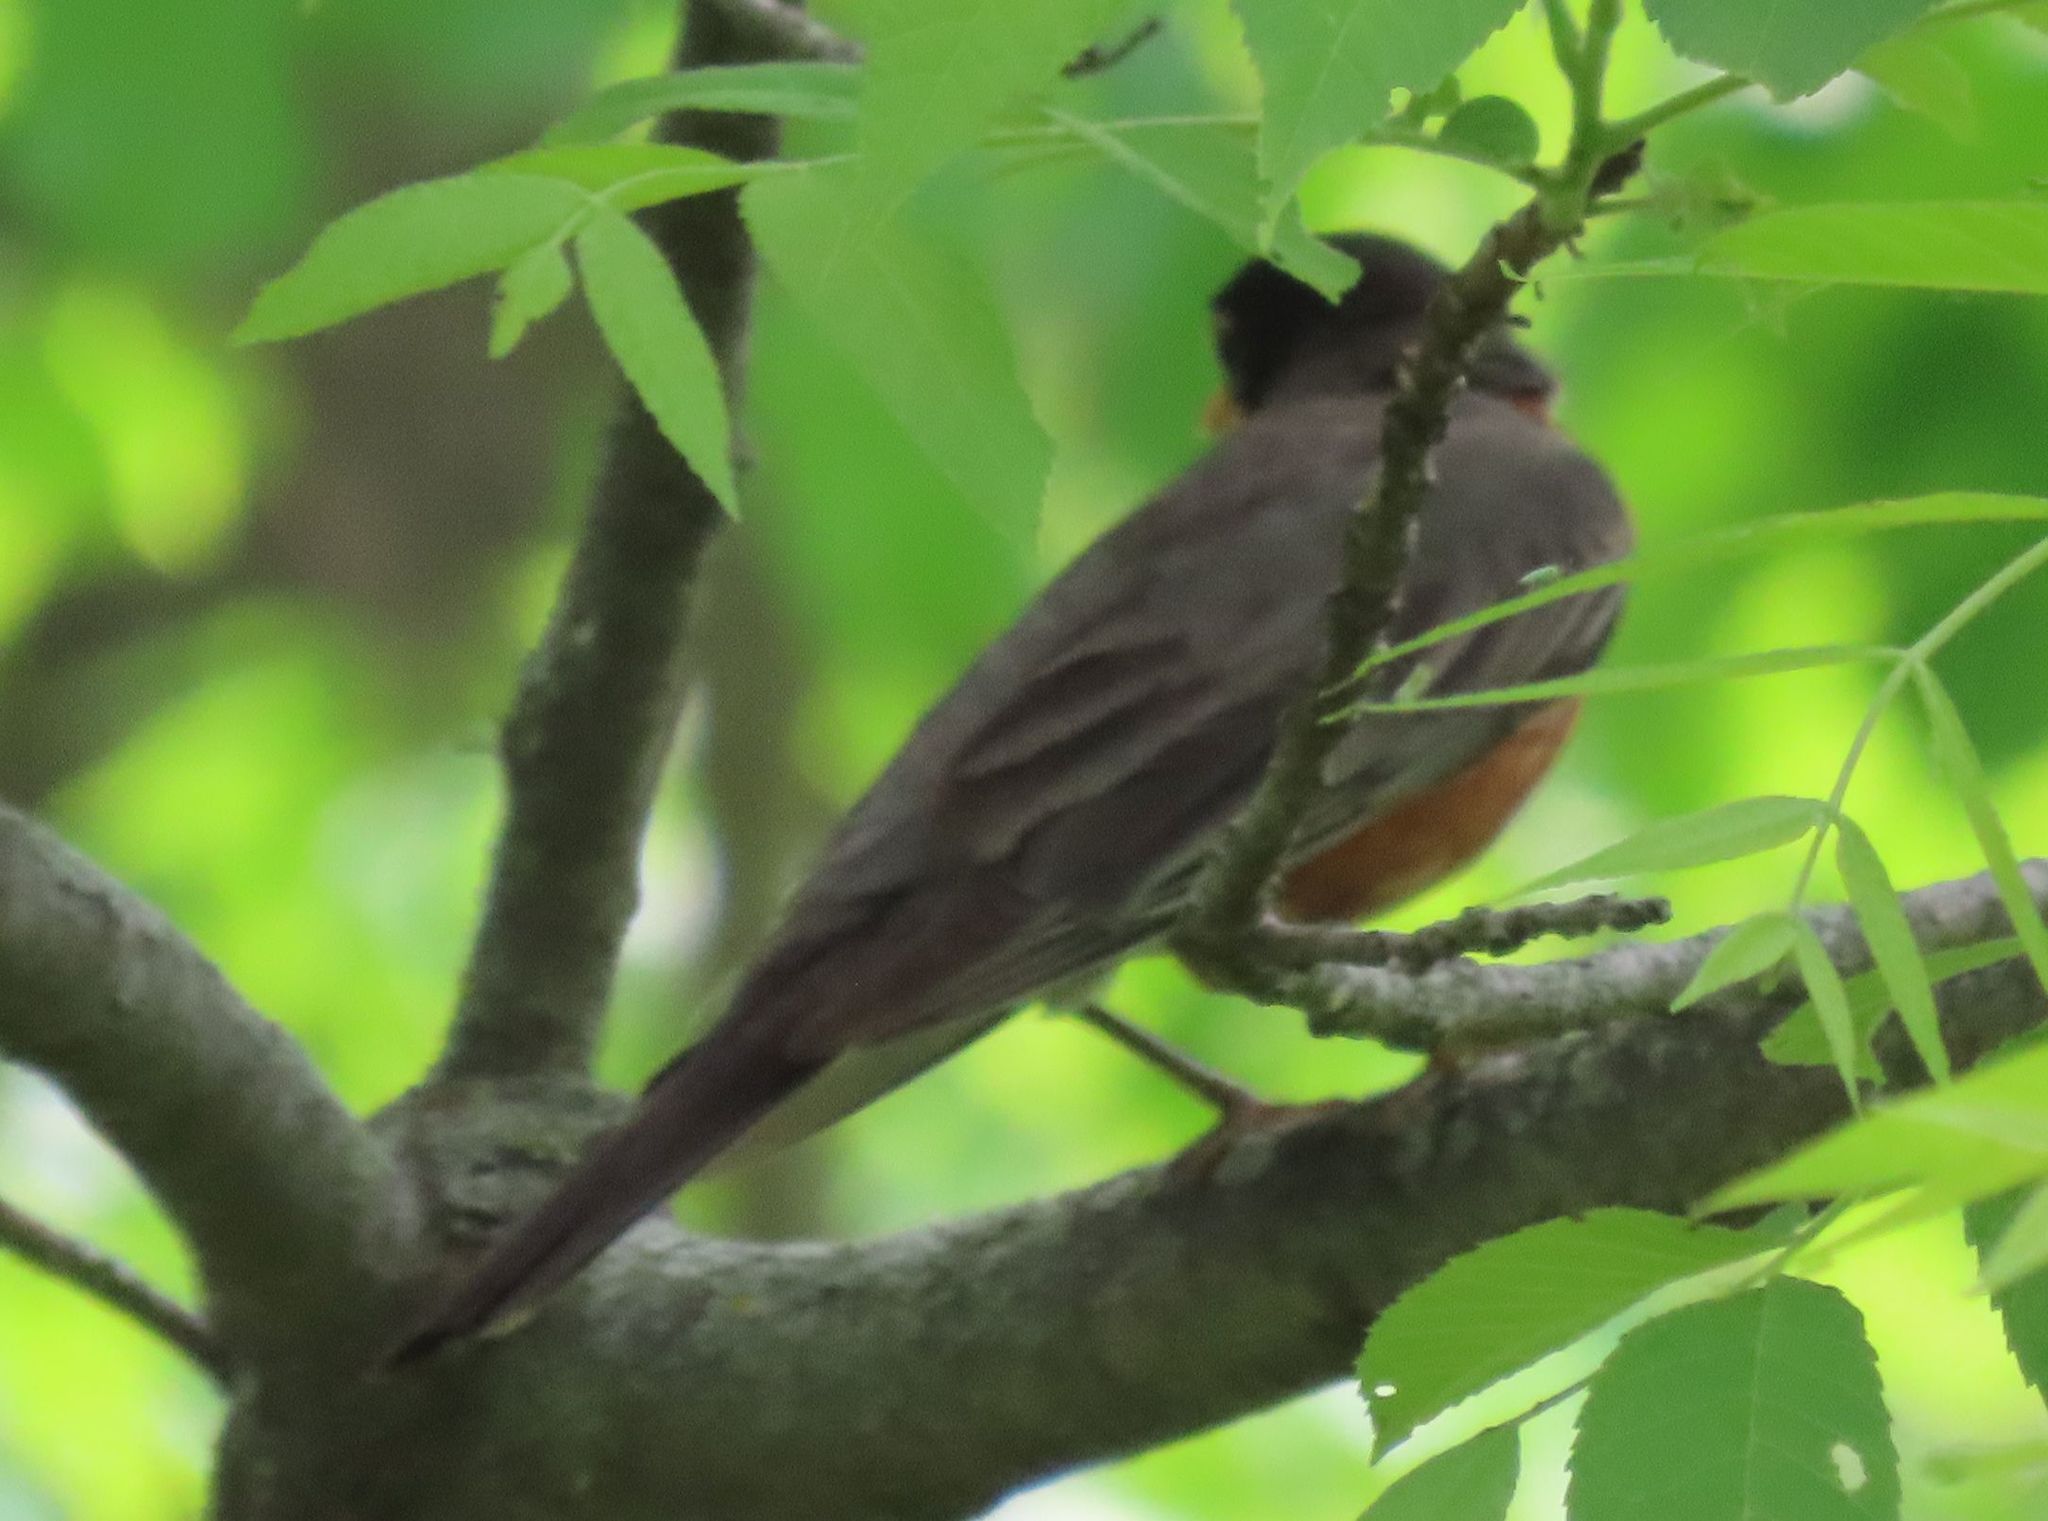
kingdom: Animalia
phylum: Chordata
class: Aves
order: Passeriformes
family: Turdidae
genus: Turdus
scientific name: Turdus migratorius
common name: American robin
